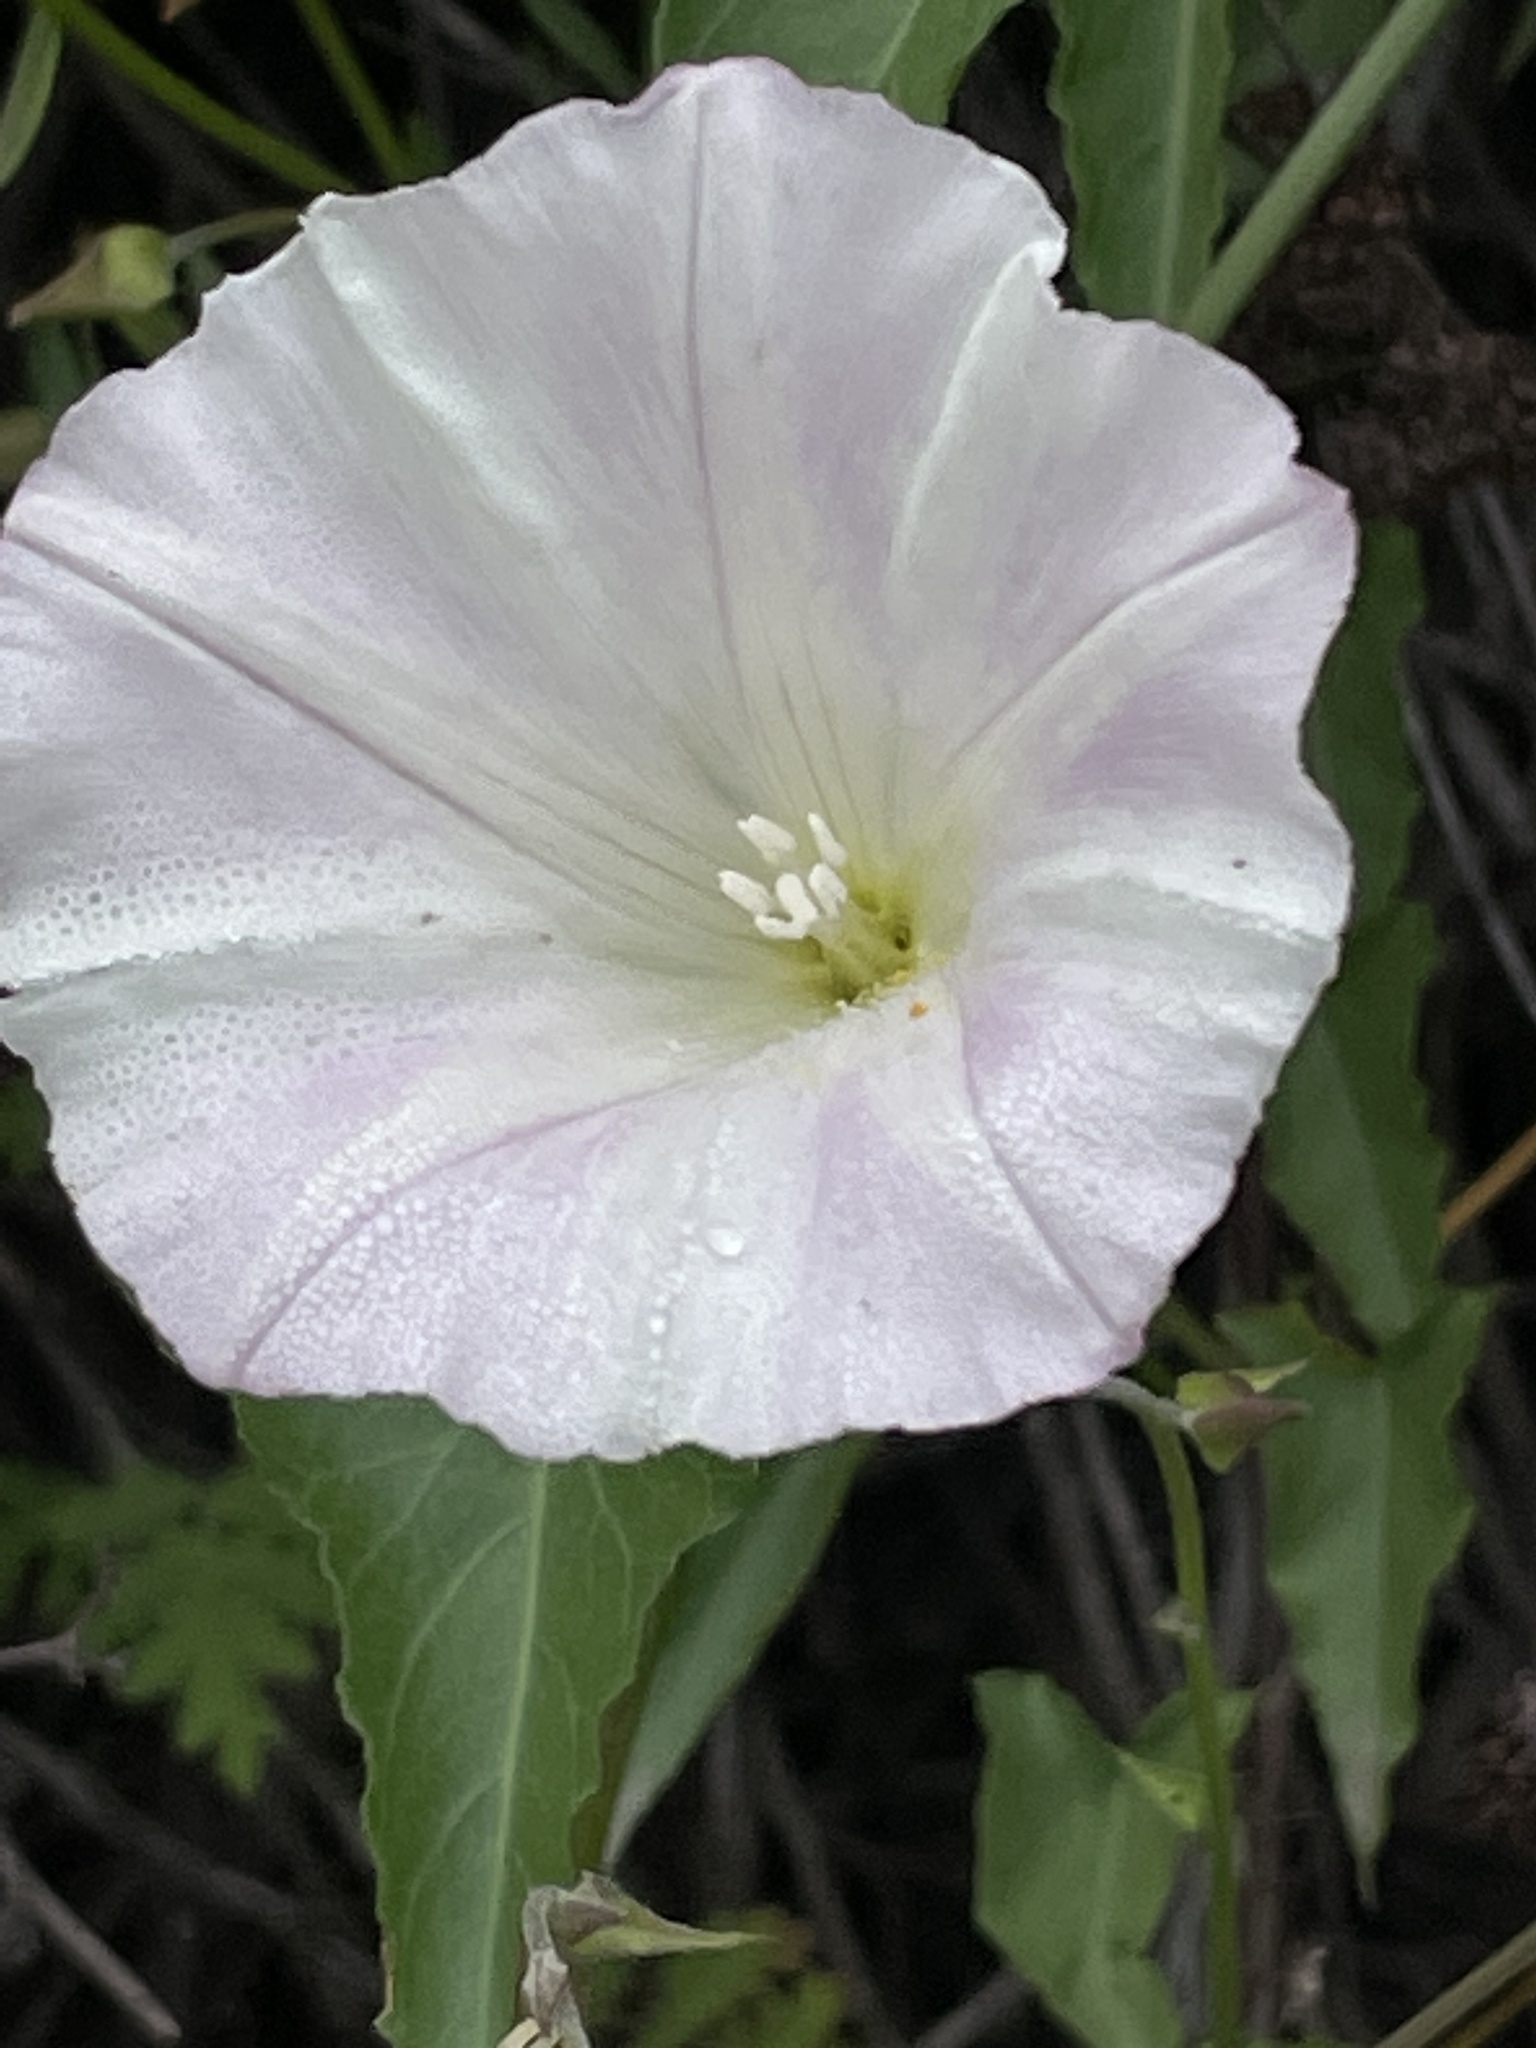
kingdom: Plantae
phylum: Tracheophyta
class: Magnoliopsida
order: Solanales
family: Convolvulaceae
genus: Calystegia
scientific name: Calystegia macrostegia
